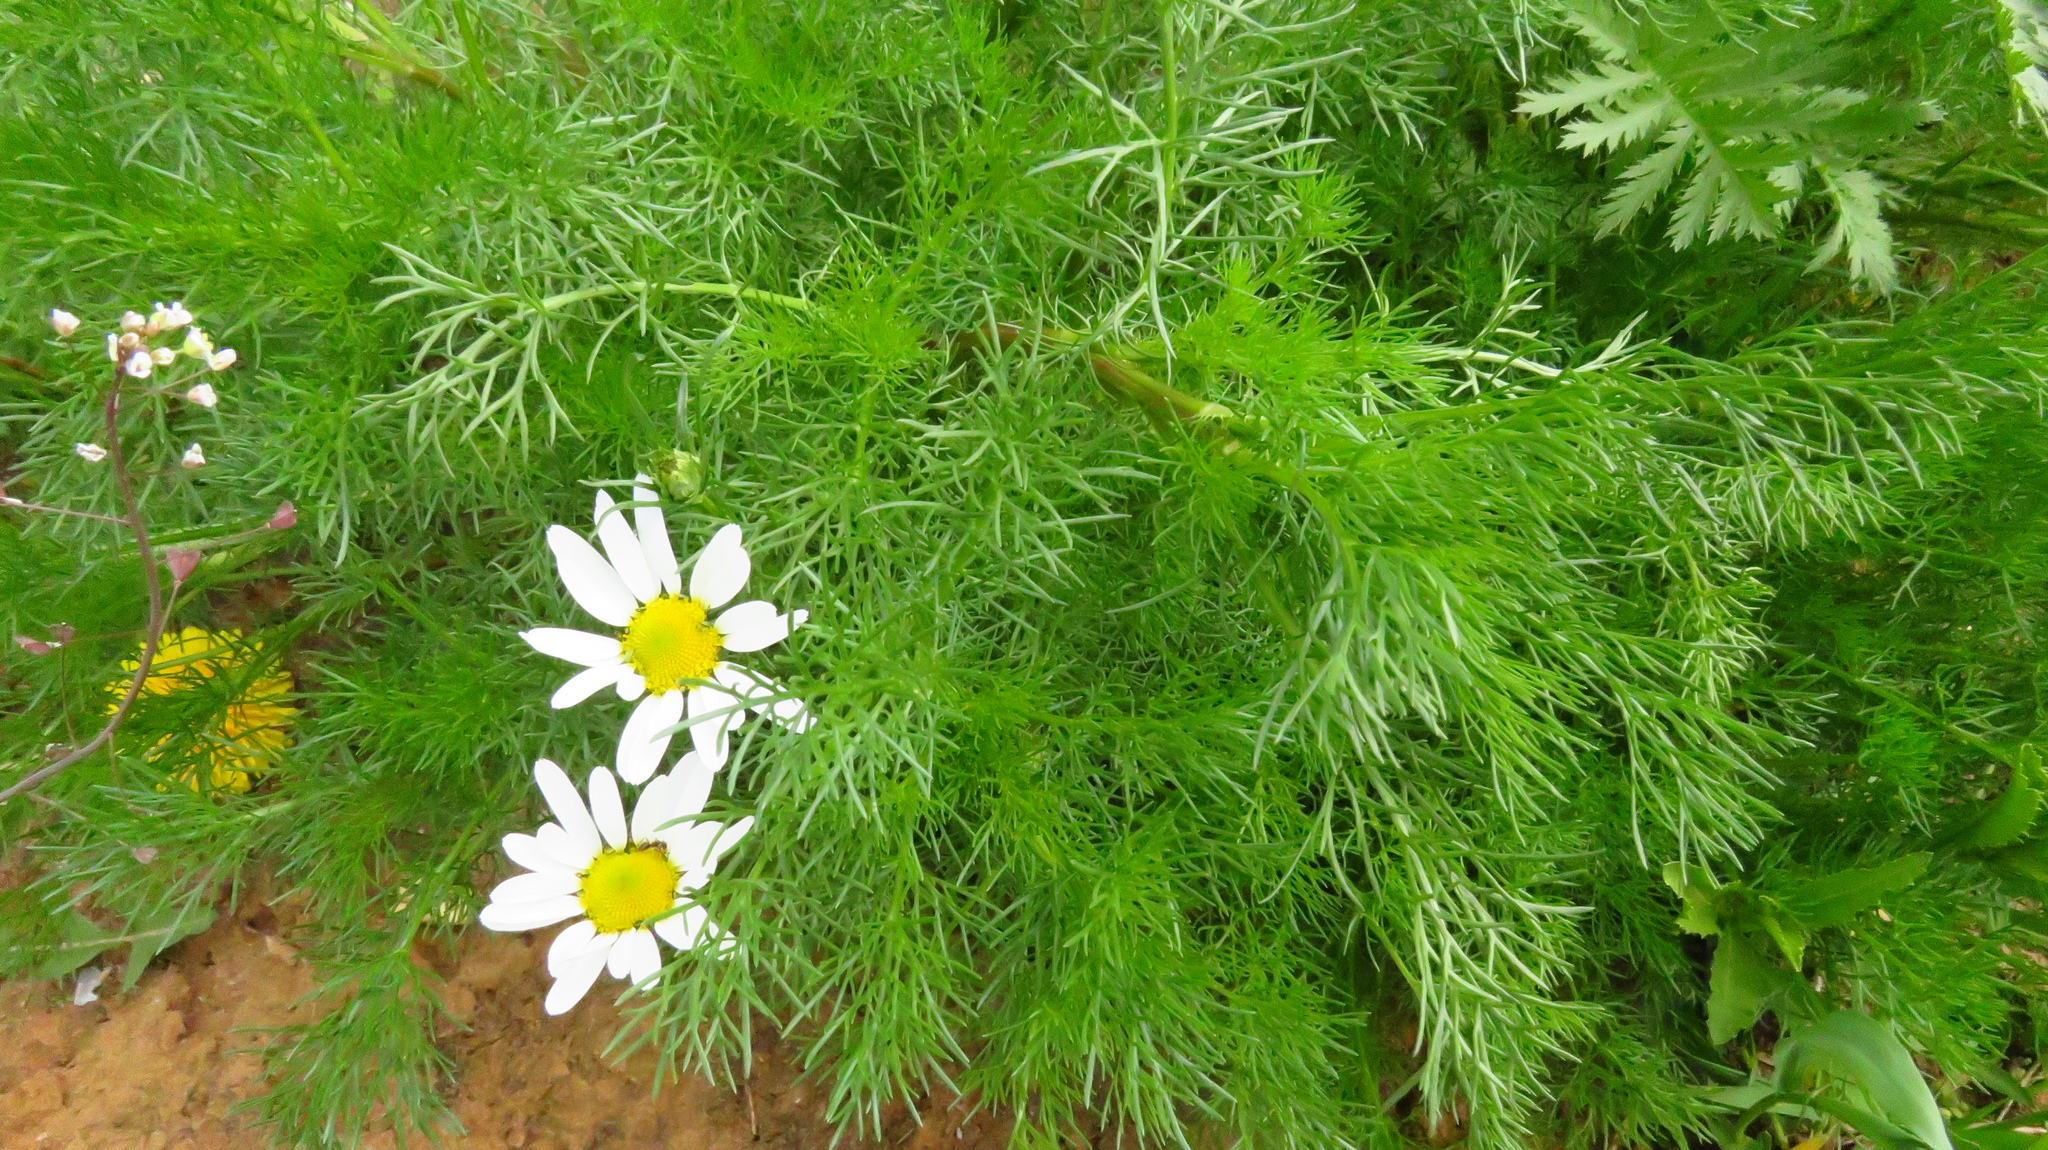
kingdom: Plantae
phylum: Tracheophyta
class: Magnoliopsida
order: Asterales
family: Asteraceae
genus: Tripleurospermum
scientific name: Tripleurospermum inodorum
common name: Scentless mayweed
